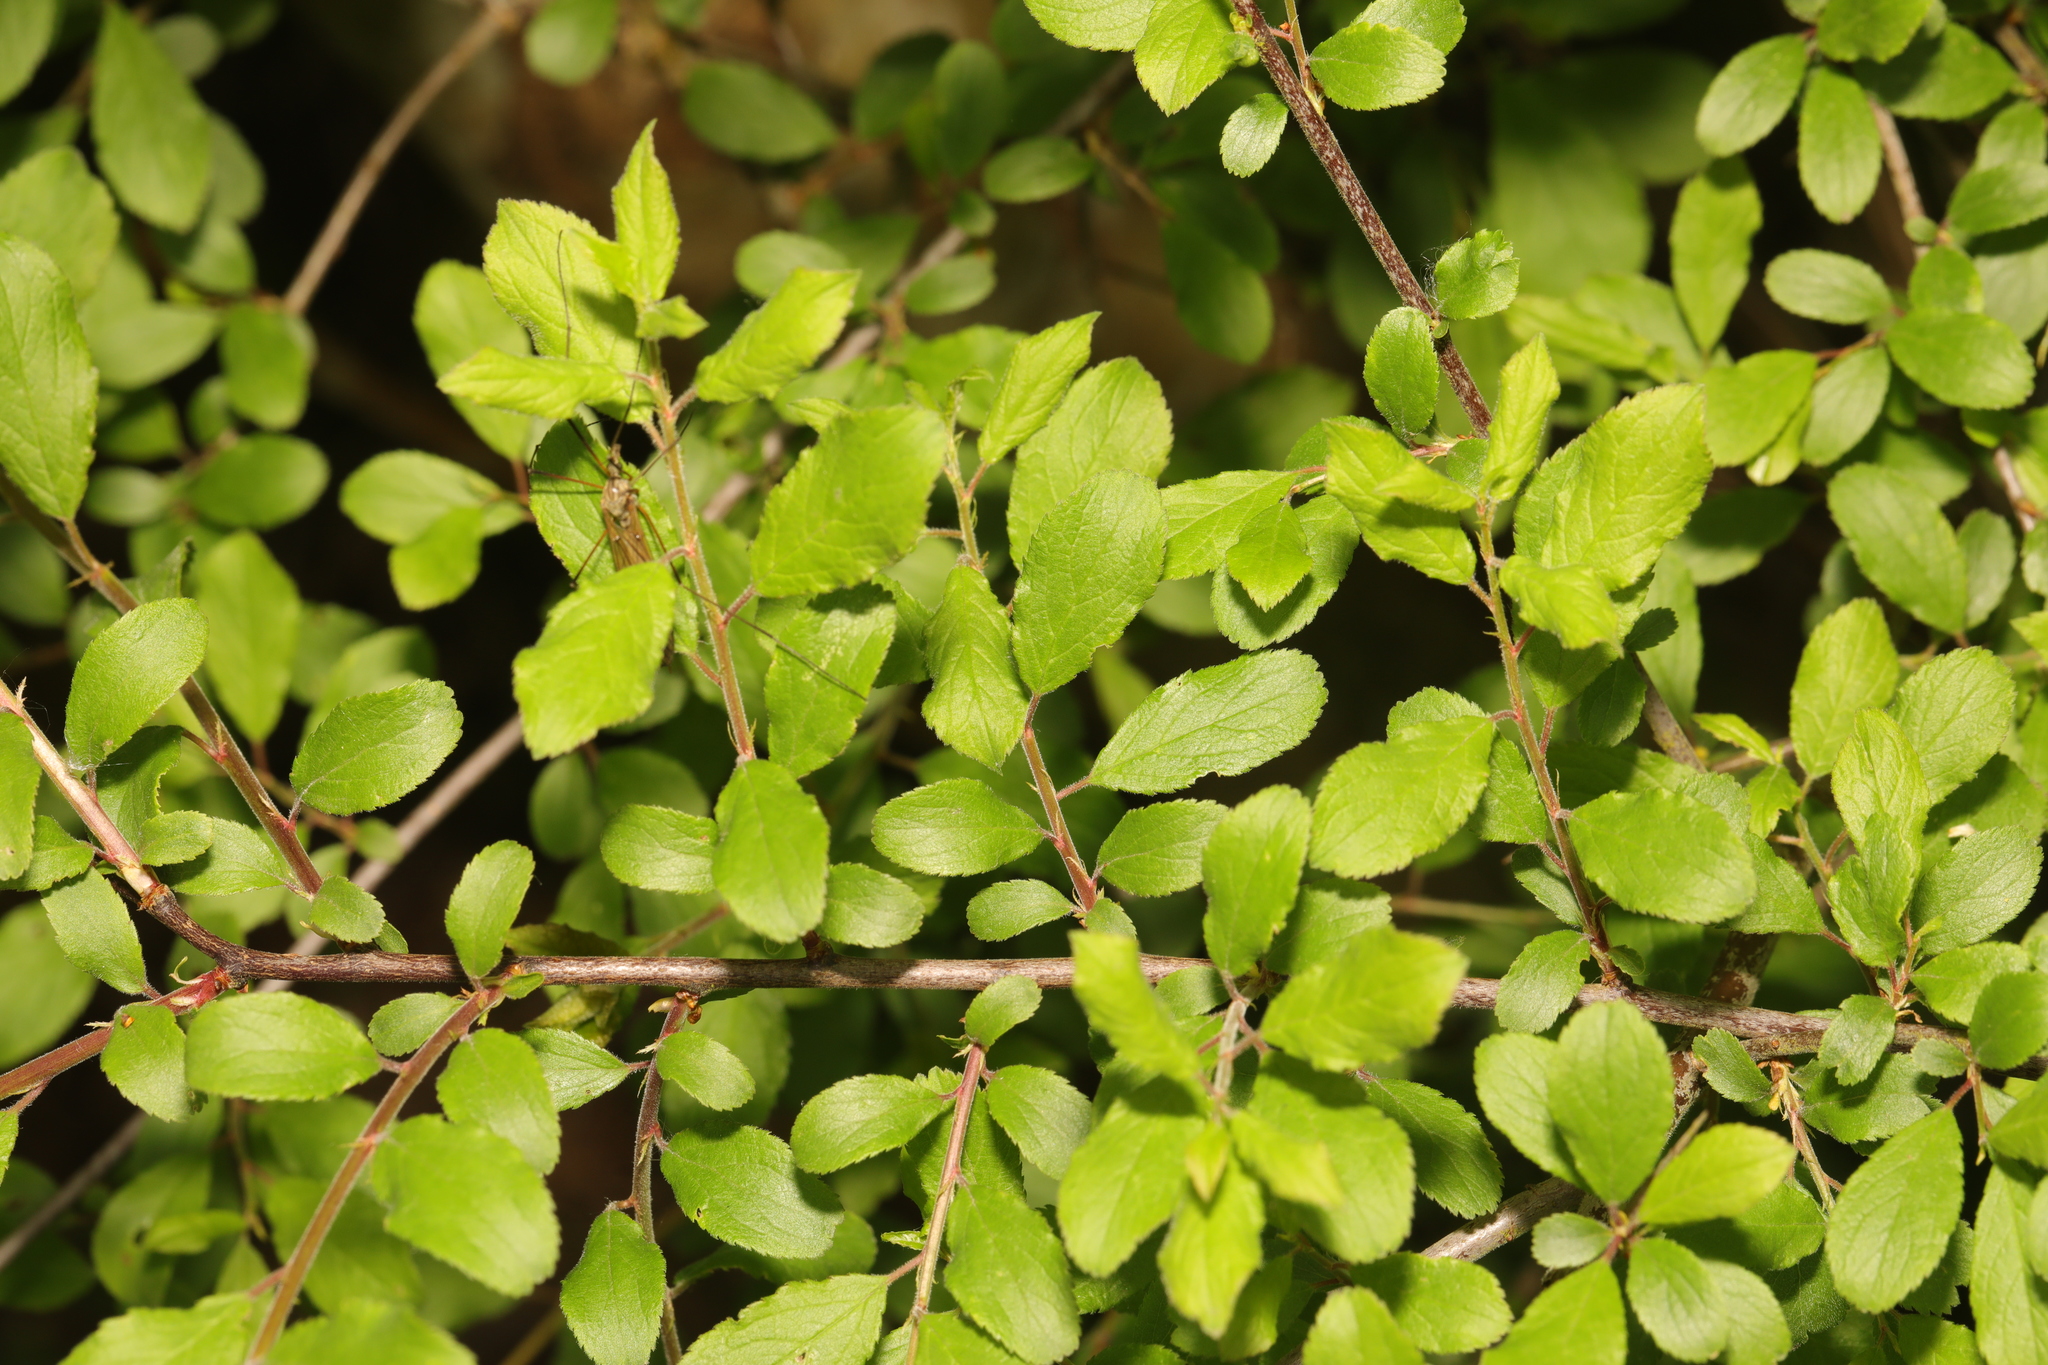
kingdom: Plantae
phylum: Tracheophyta
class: Magnoliopsida
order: Rosales
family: Rosaceae
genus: Prunus
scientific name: Prunus spinosa
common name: Blackthorn
